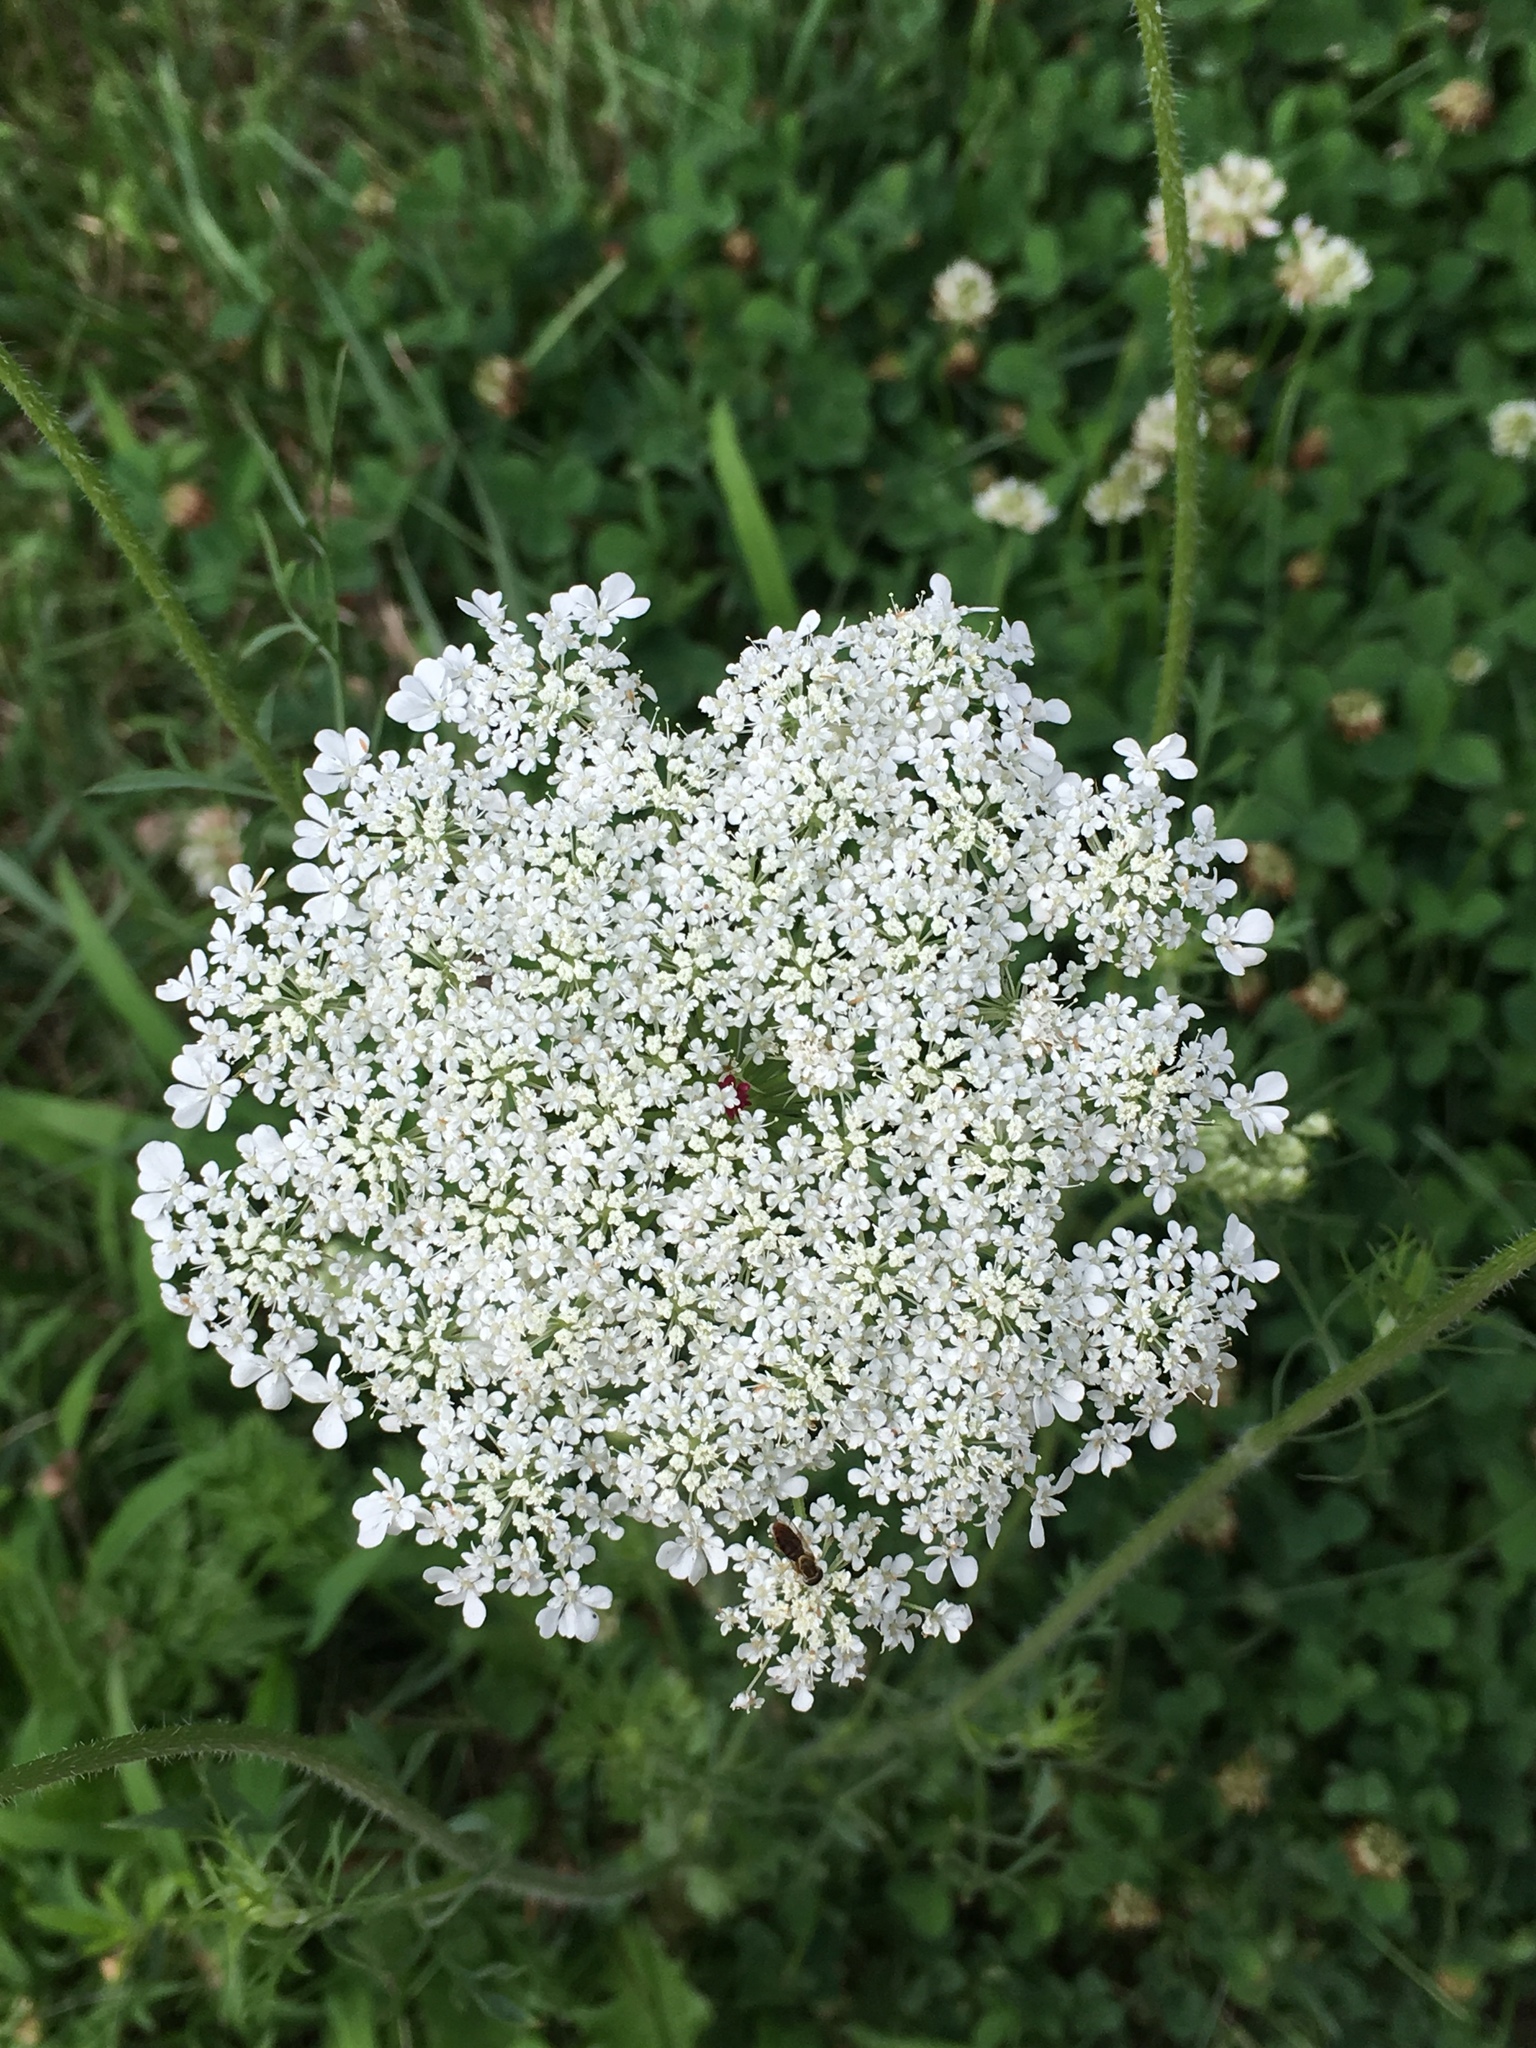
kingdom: Plantae
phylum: Tracheophyta
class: Magnoliopsida
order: Apiales
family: Apiaceae
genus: Daucus
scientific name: Daucus carota
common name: Wild carrot
